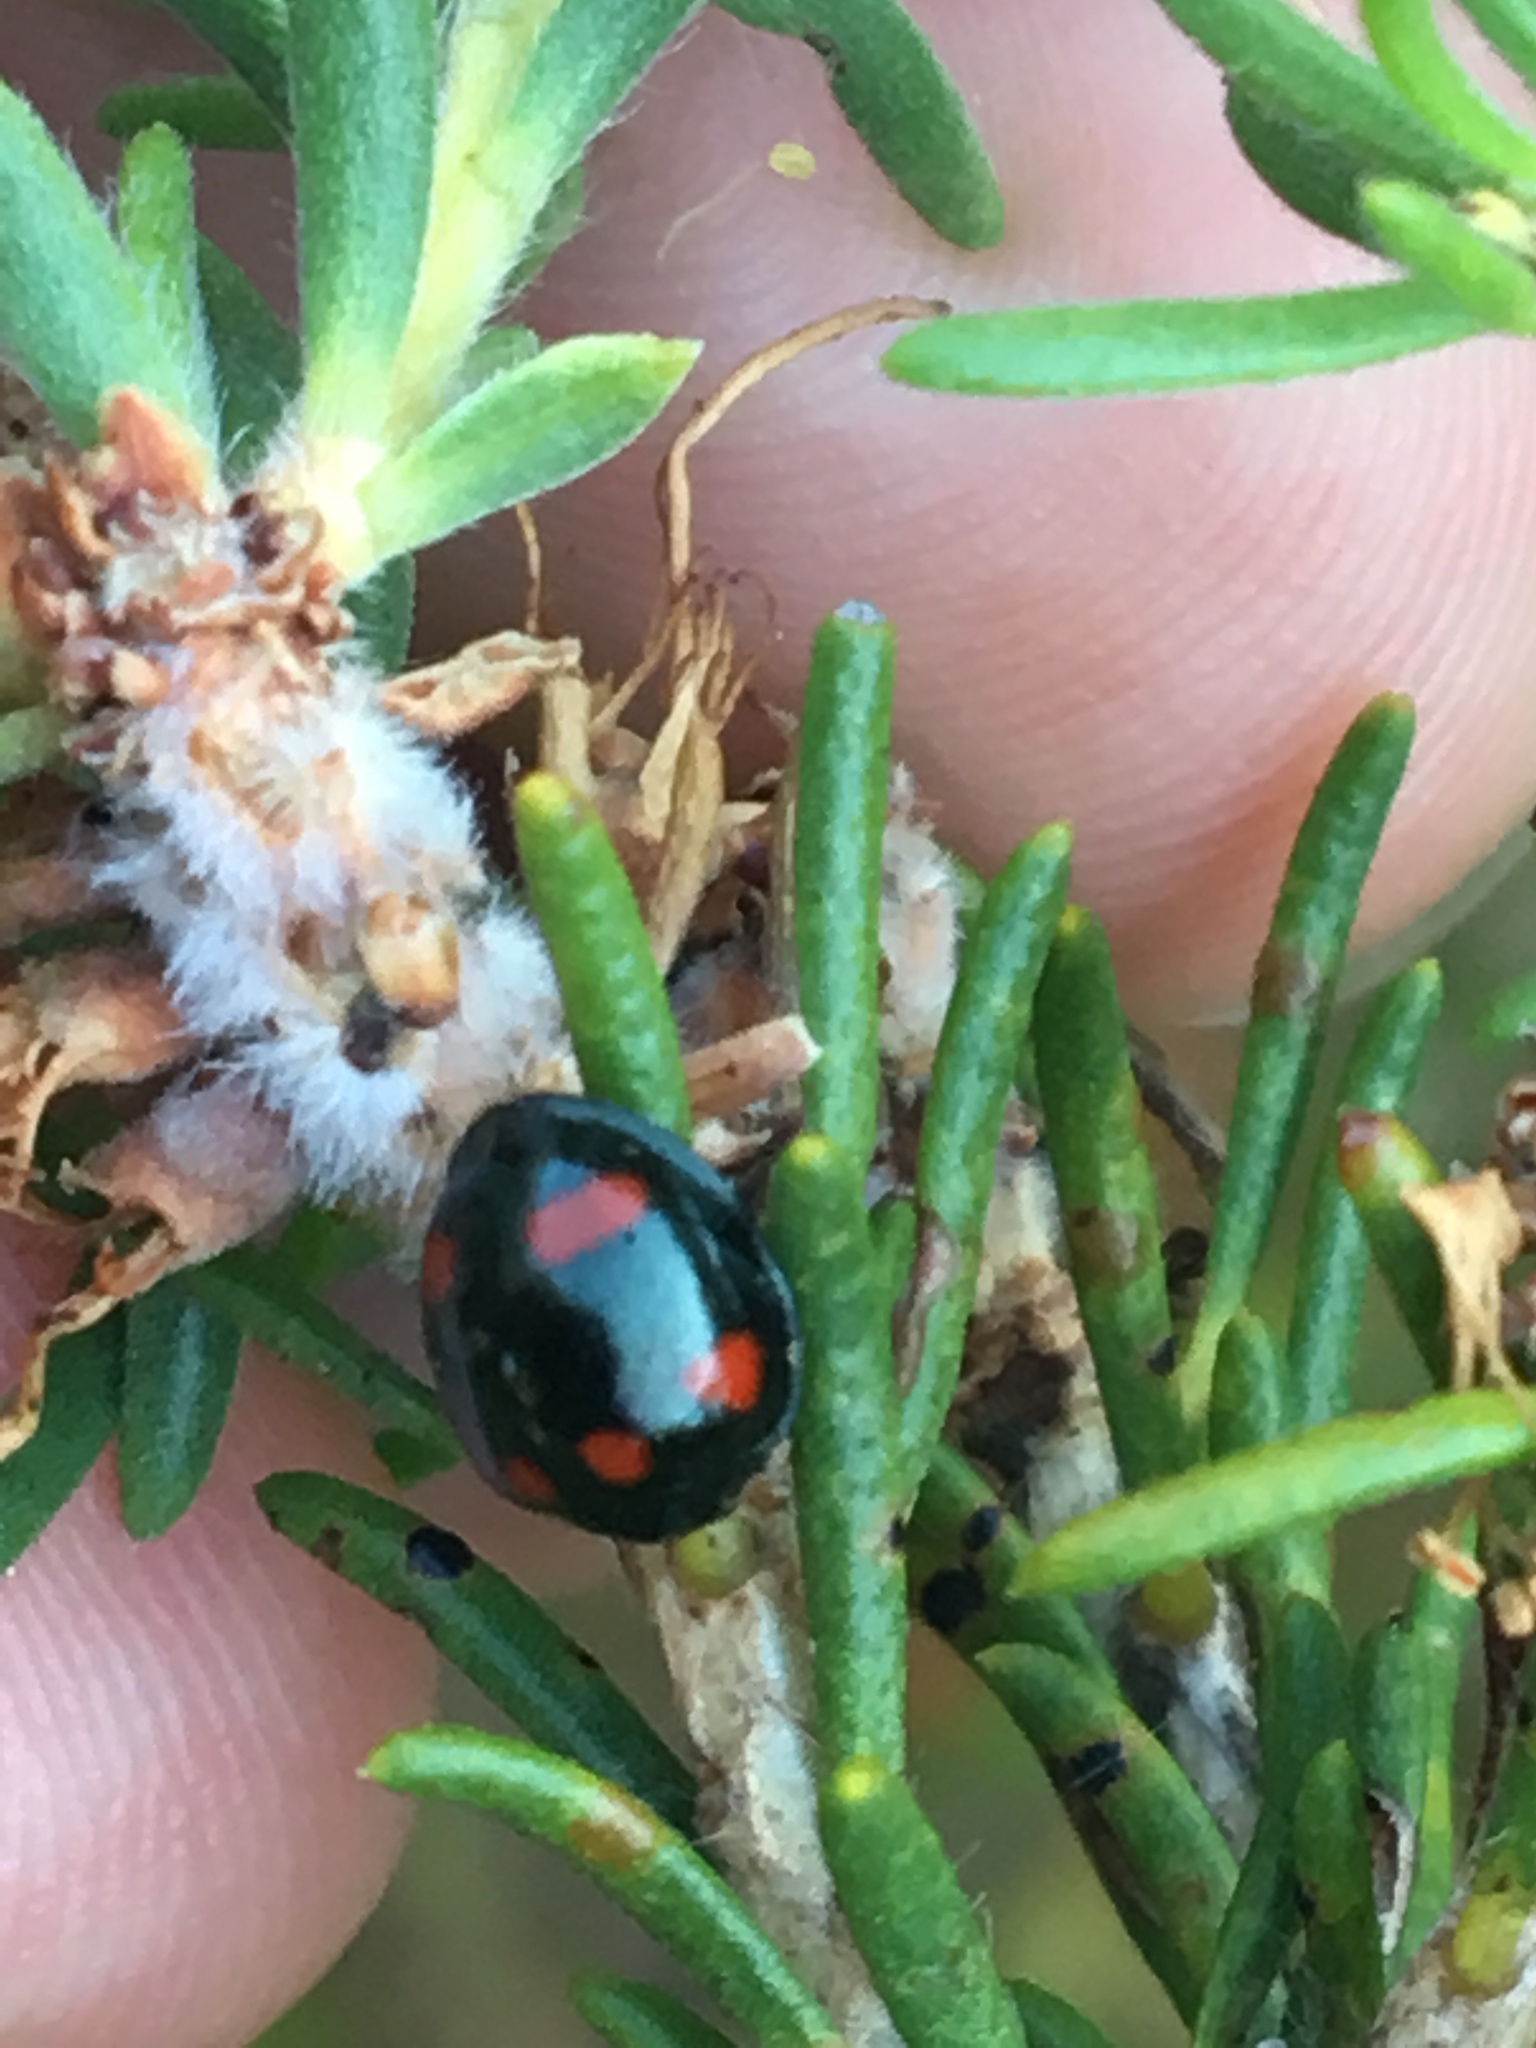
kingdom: Animalia
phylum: Arthropoda
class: Insecta
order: Coleoptera
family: Coccinellidae
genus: Orcus
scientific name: Orcus australasiae
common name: Lady beetle
